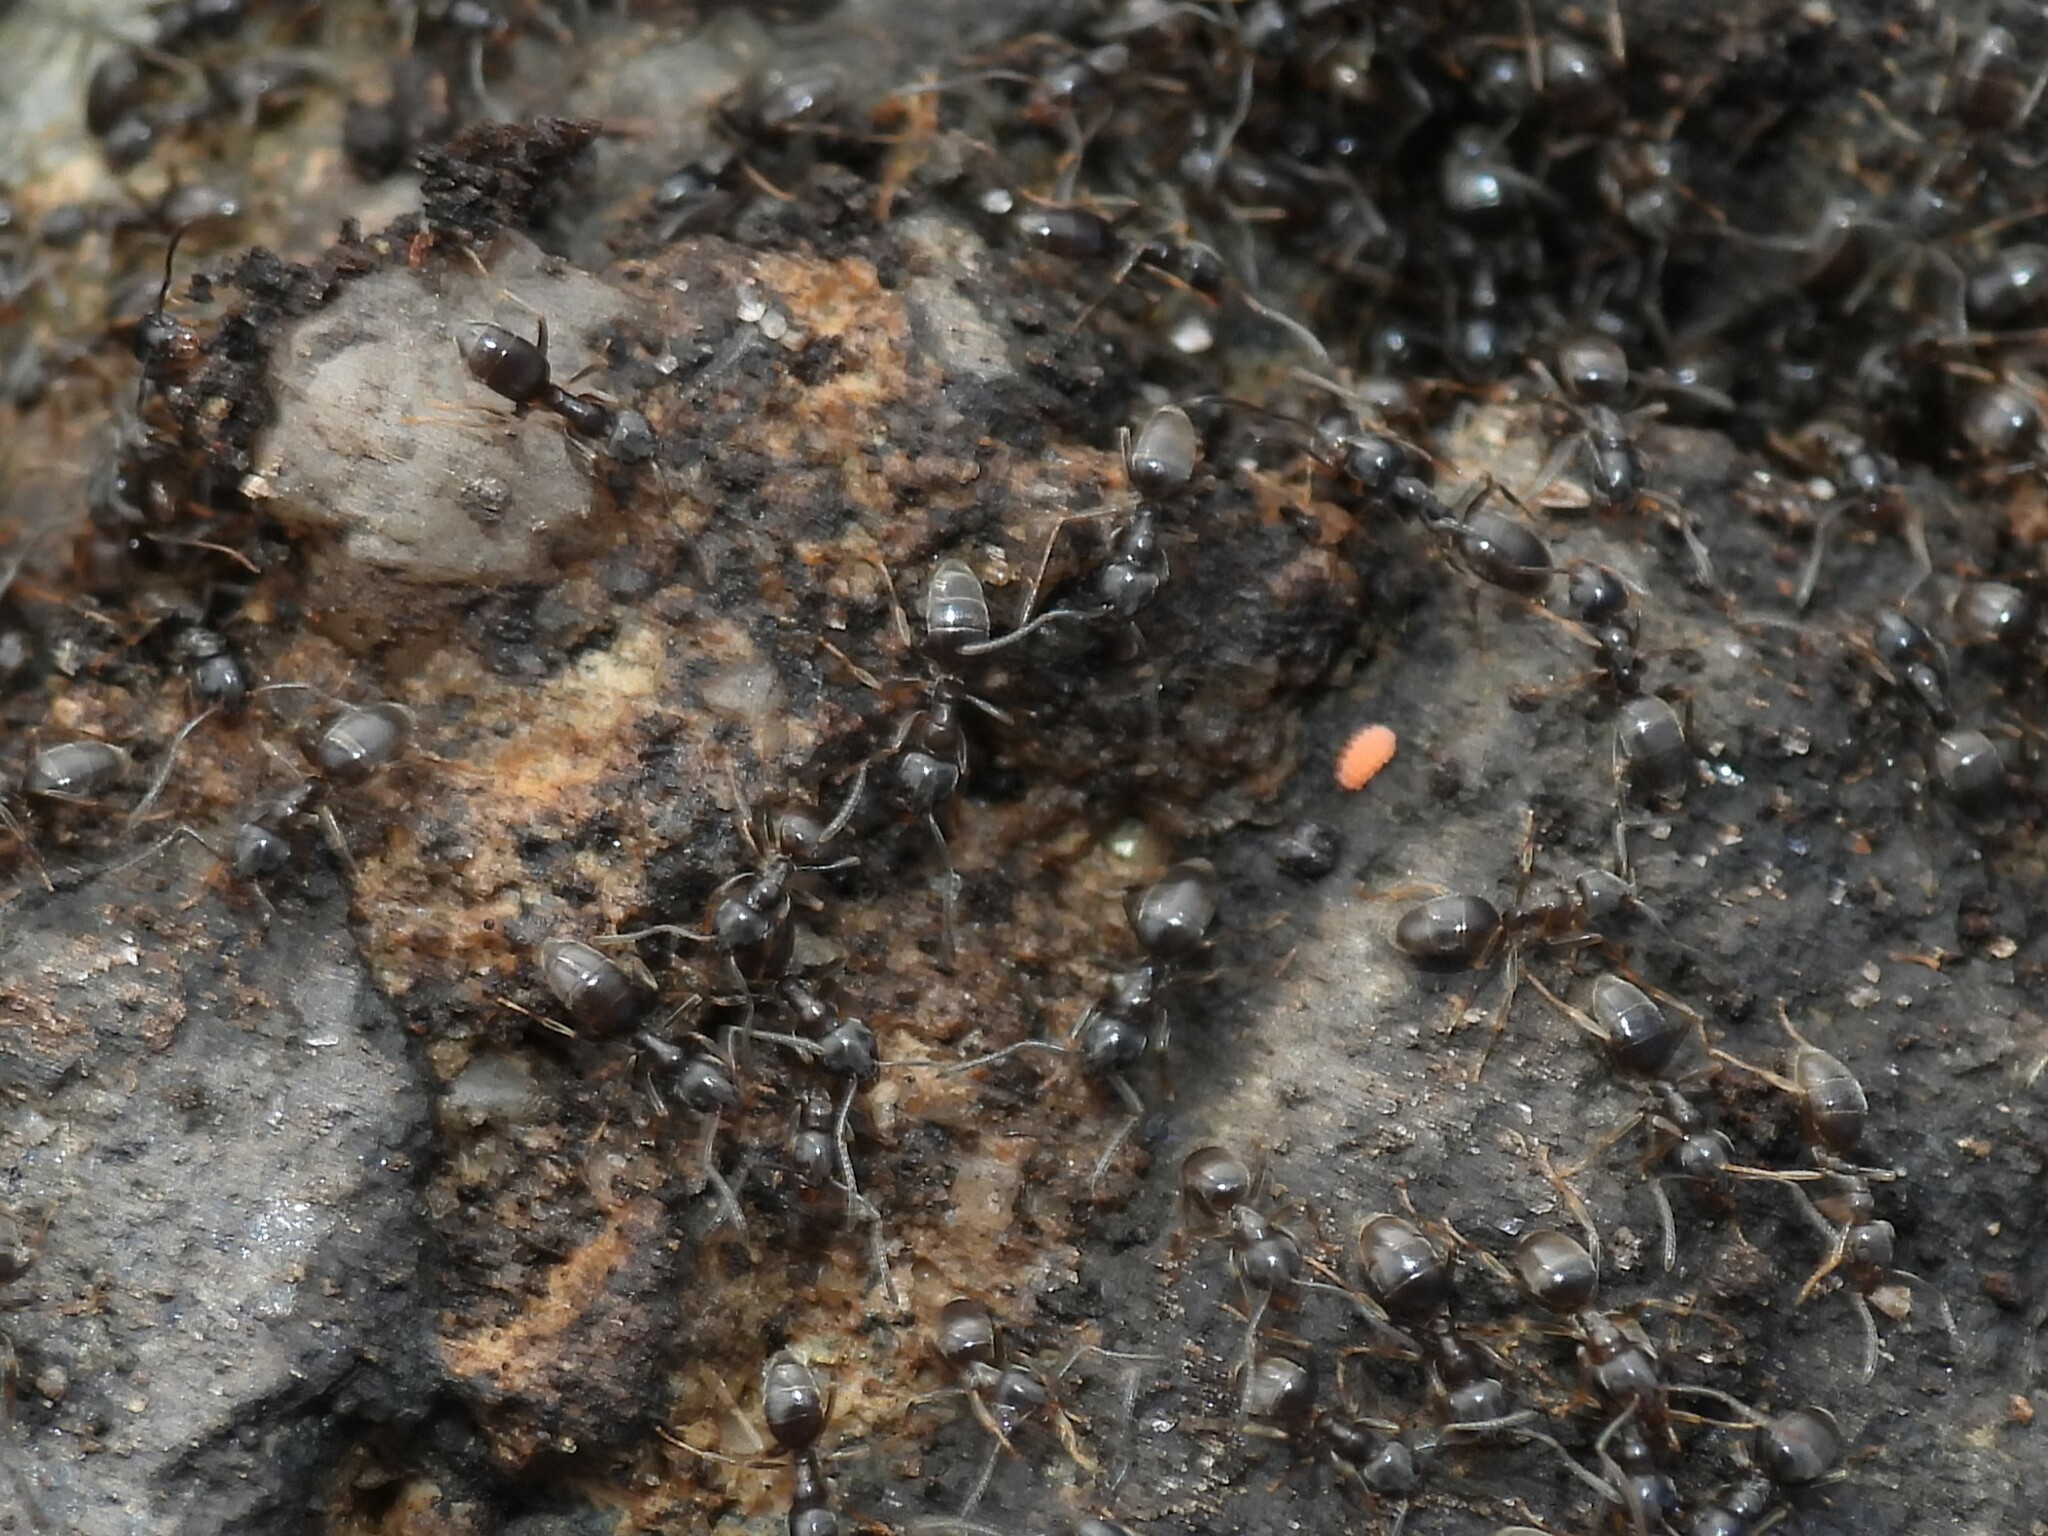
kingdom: Animalia
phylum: Arthropoda
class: Insecta
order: Hymenoptera
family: Formicidae
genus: Tapinoma
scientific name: Tapinoma sessile
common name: Odorous house ant
